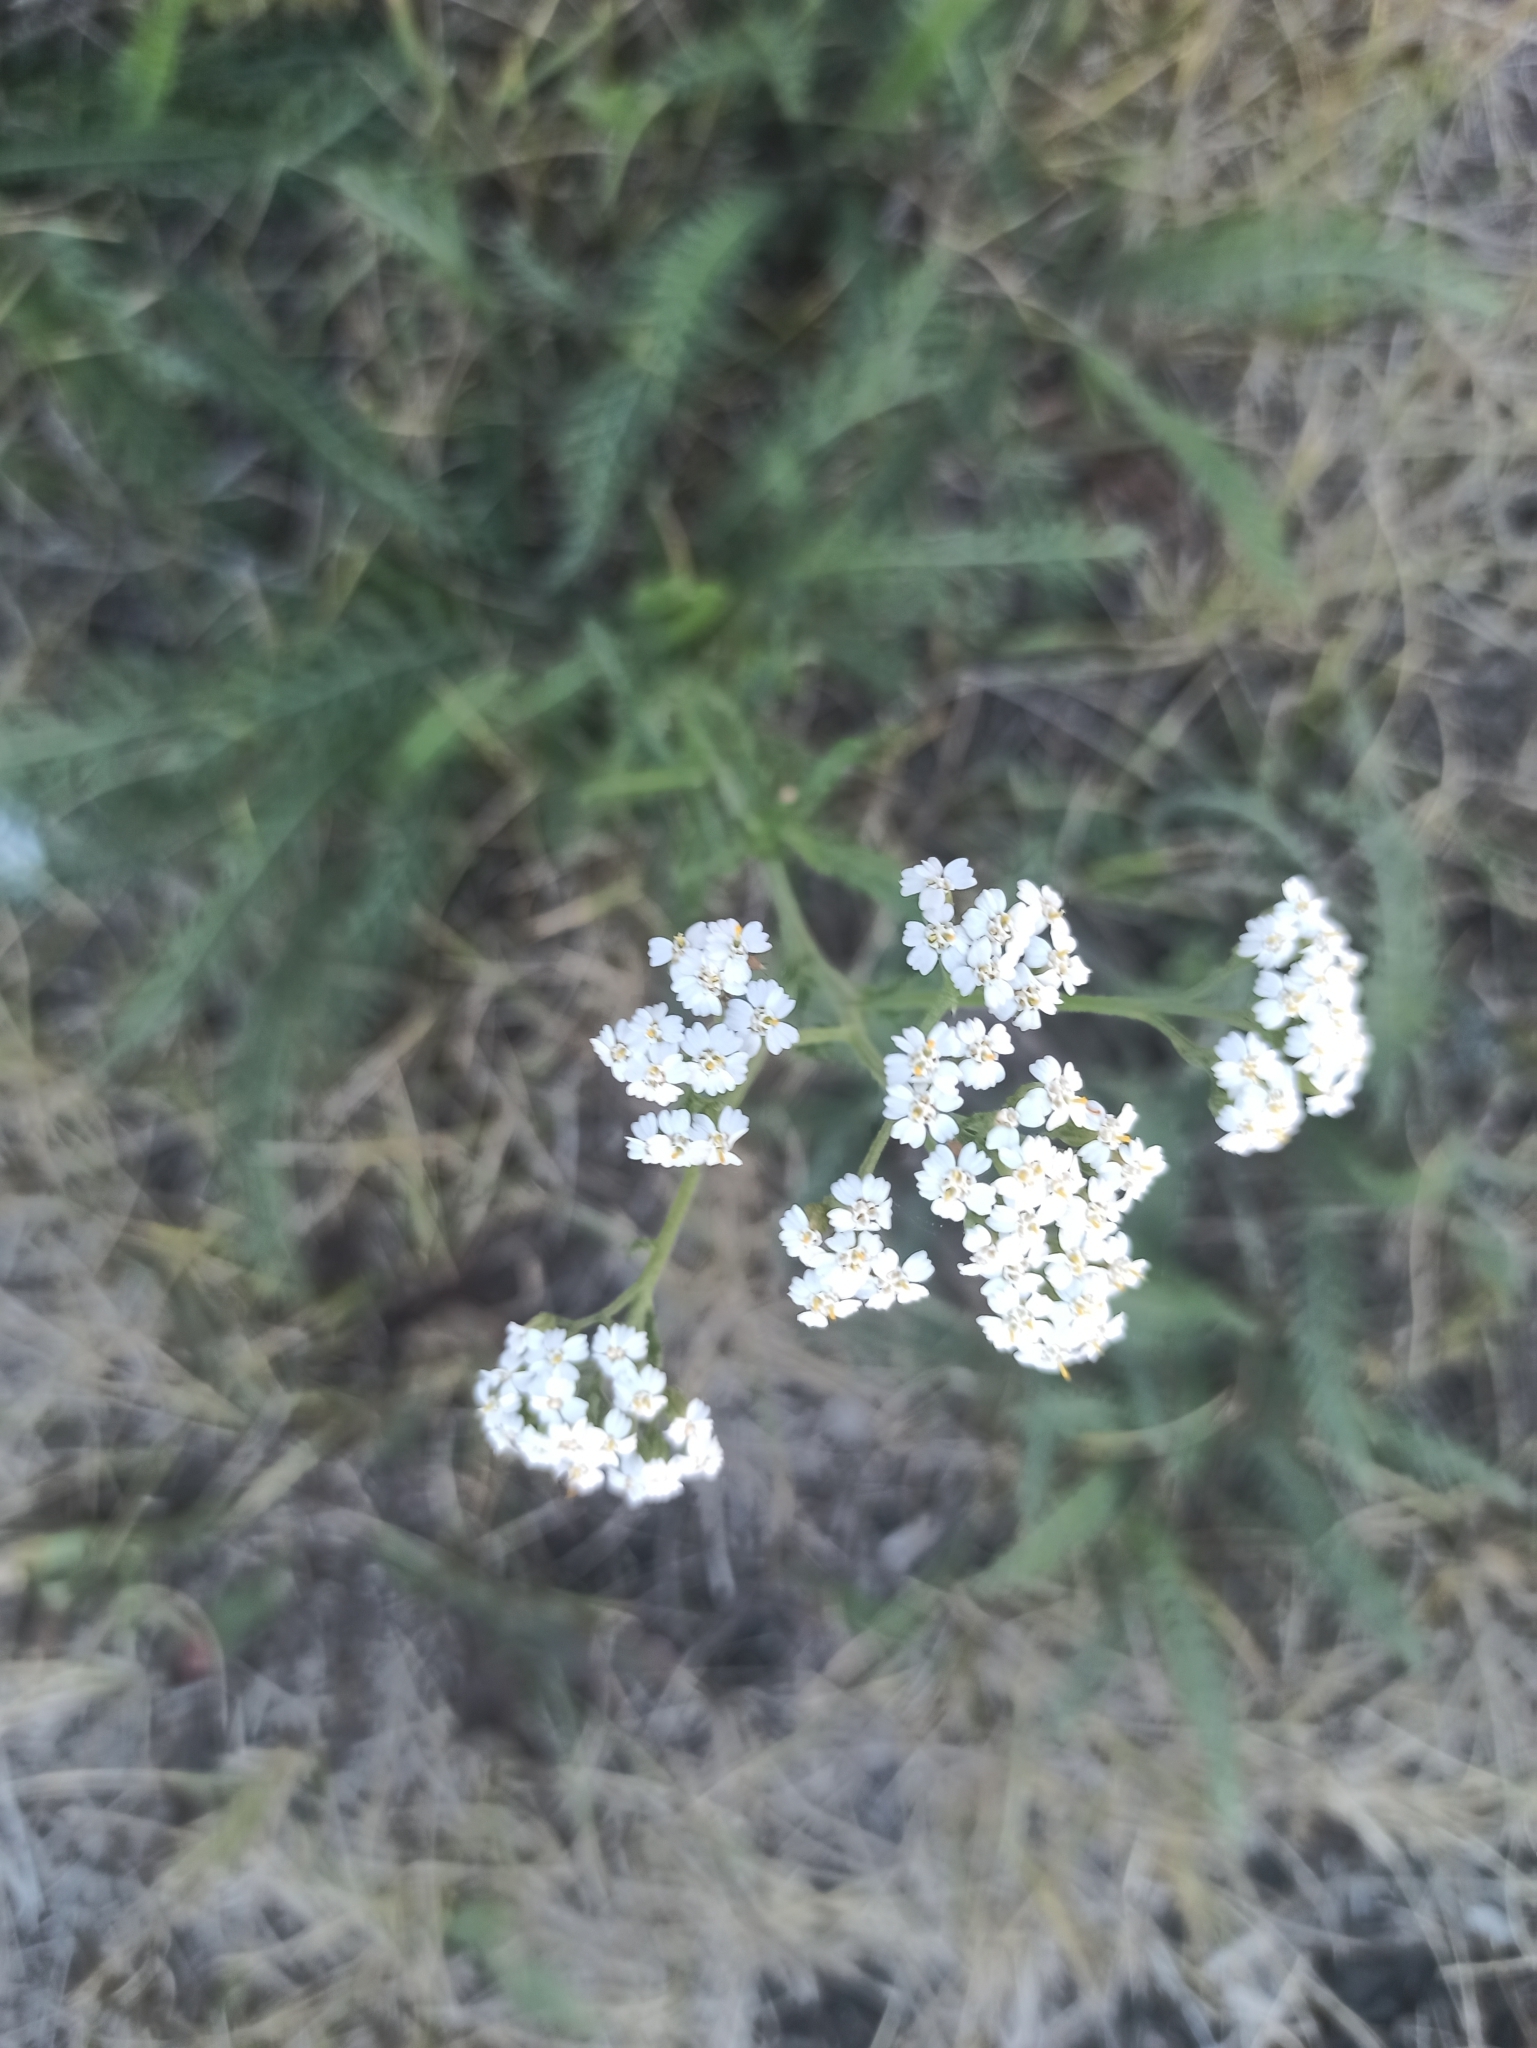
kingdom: Plantae
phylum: Tracheophyta
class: Magnoliopsida
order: Asterales
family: Asteraceae
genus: Achillea
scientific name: Achillea millefolium
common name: Yarrow
